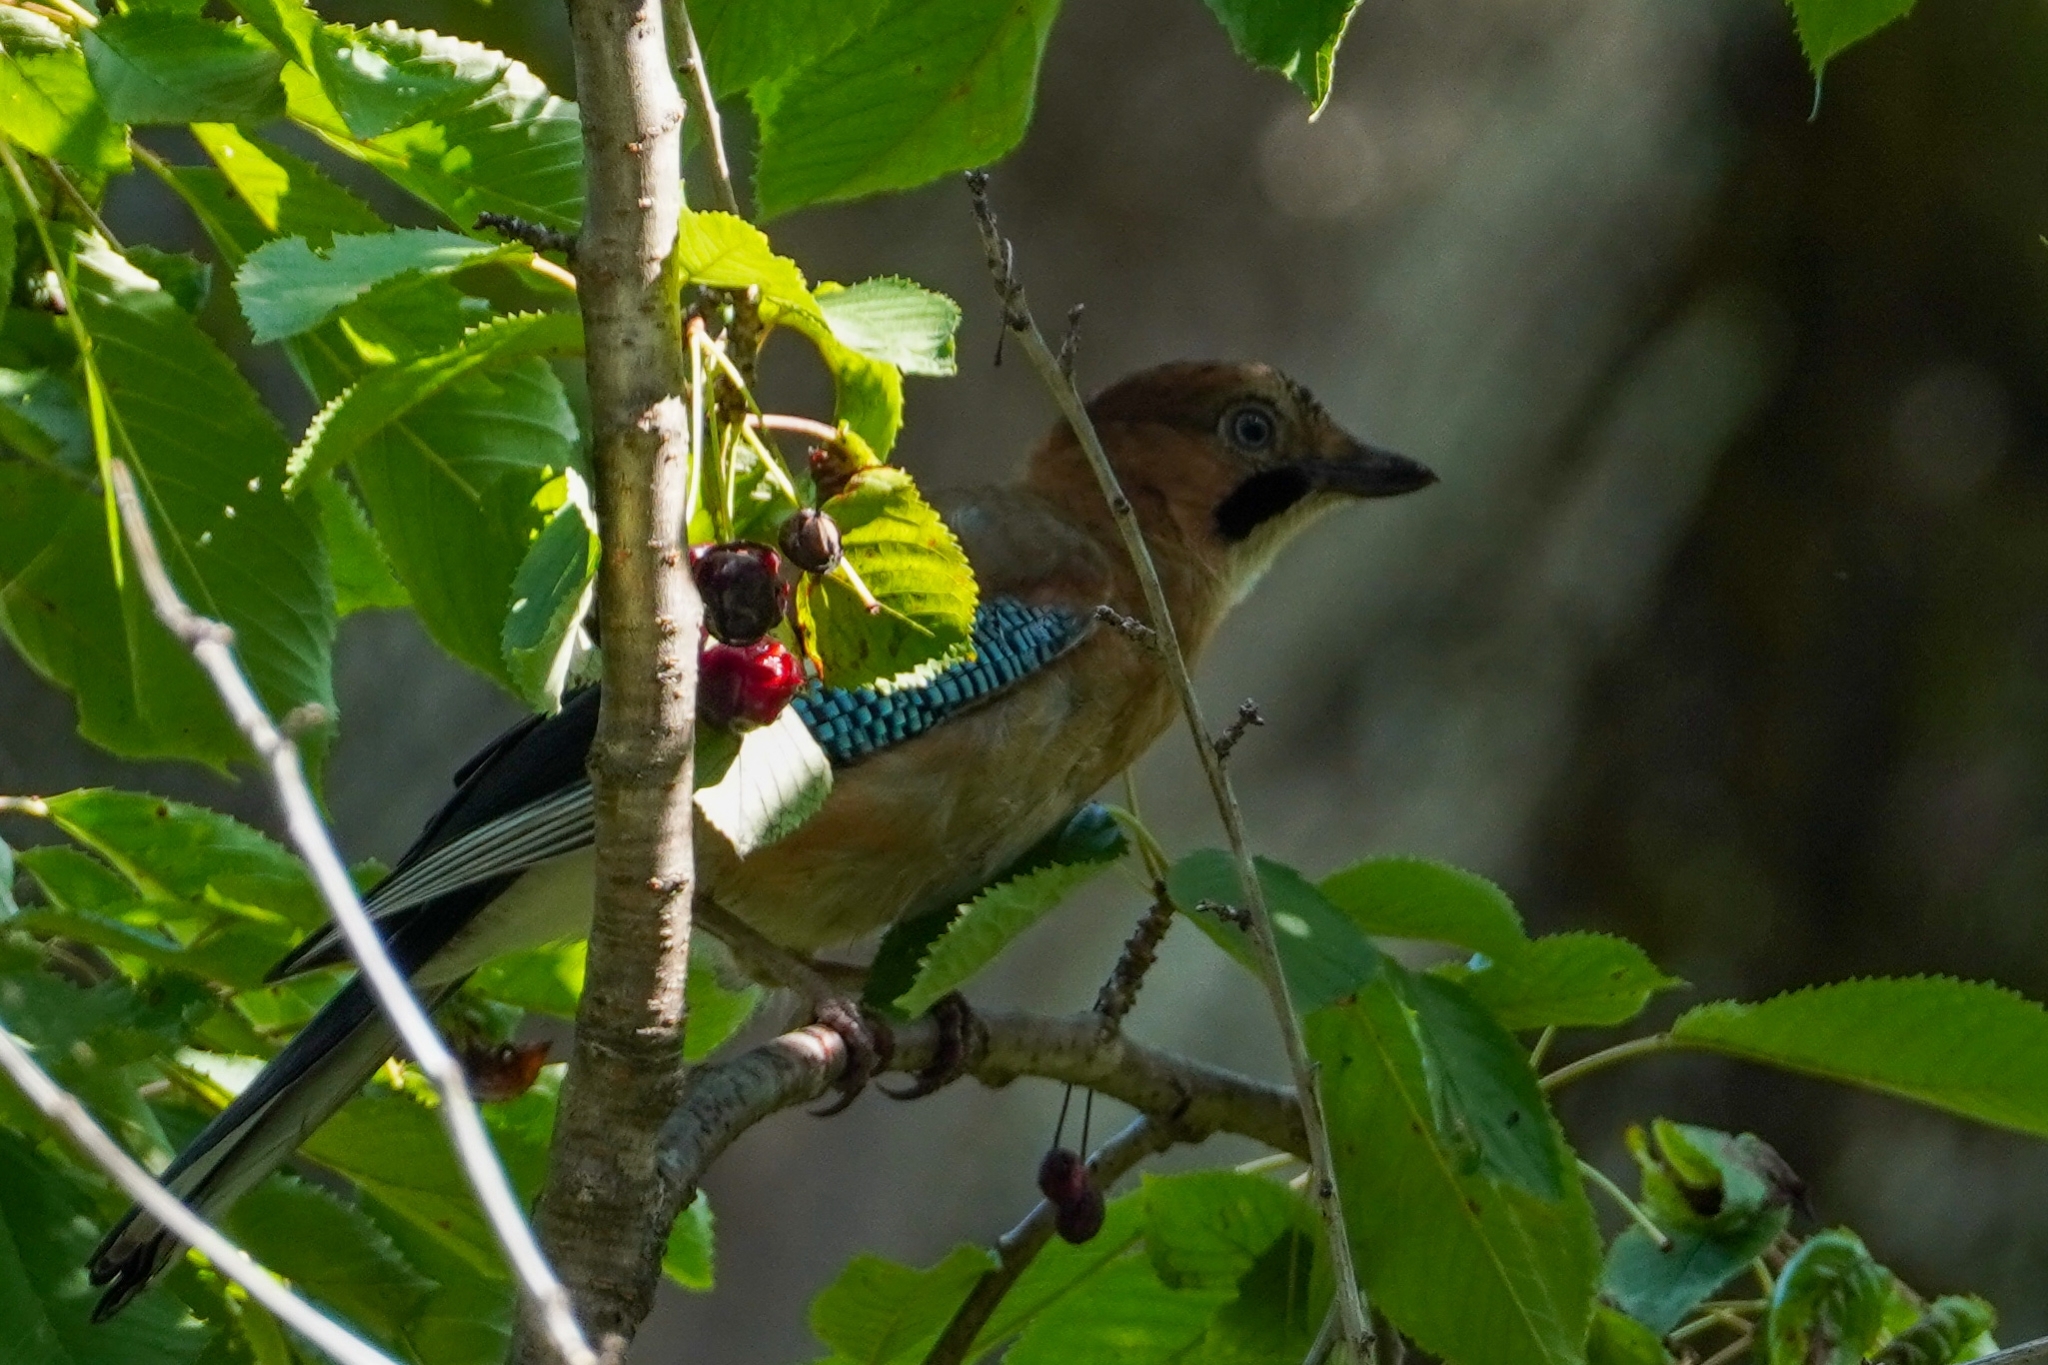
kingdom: Animalia
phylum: Chordata
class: Aves
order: Passeriformes
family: Corvidae
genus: Garrulus
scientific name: Garrulus glandarius
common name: Eurasian jay
